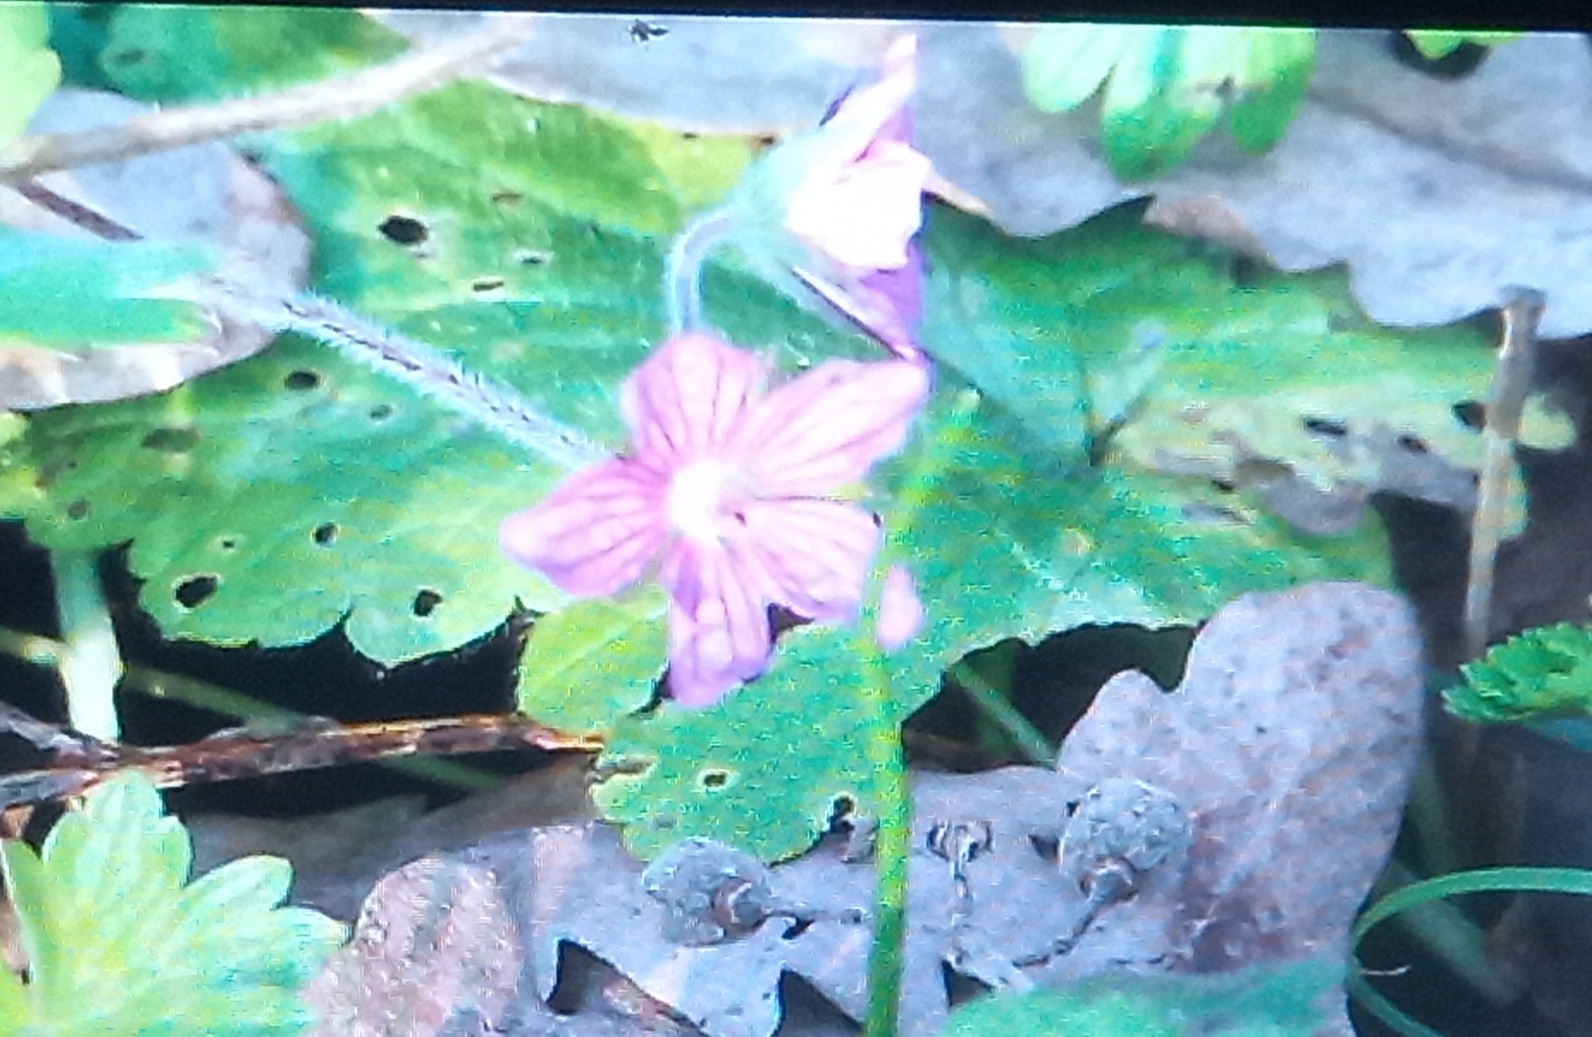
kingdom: Plantae
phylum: Tracheophyta
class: Magnoliopsida
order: Malvales
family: Malvaceae
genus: Malva
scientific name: Malva sylvestris
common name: Common mallow
